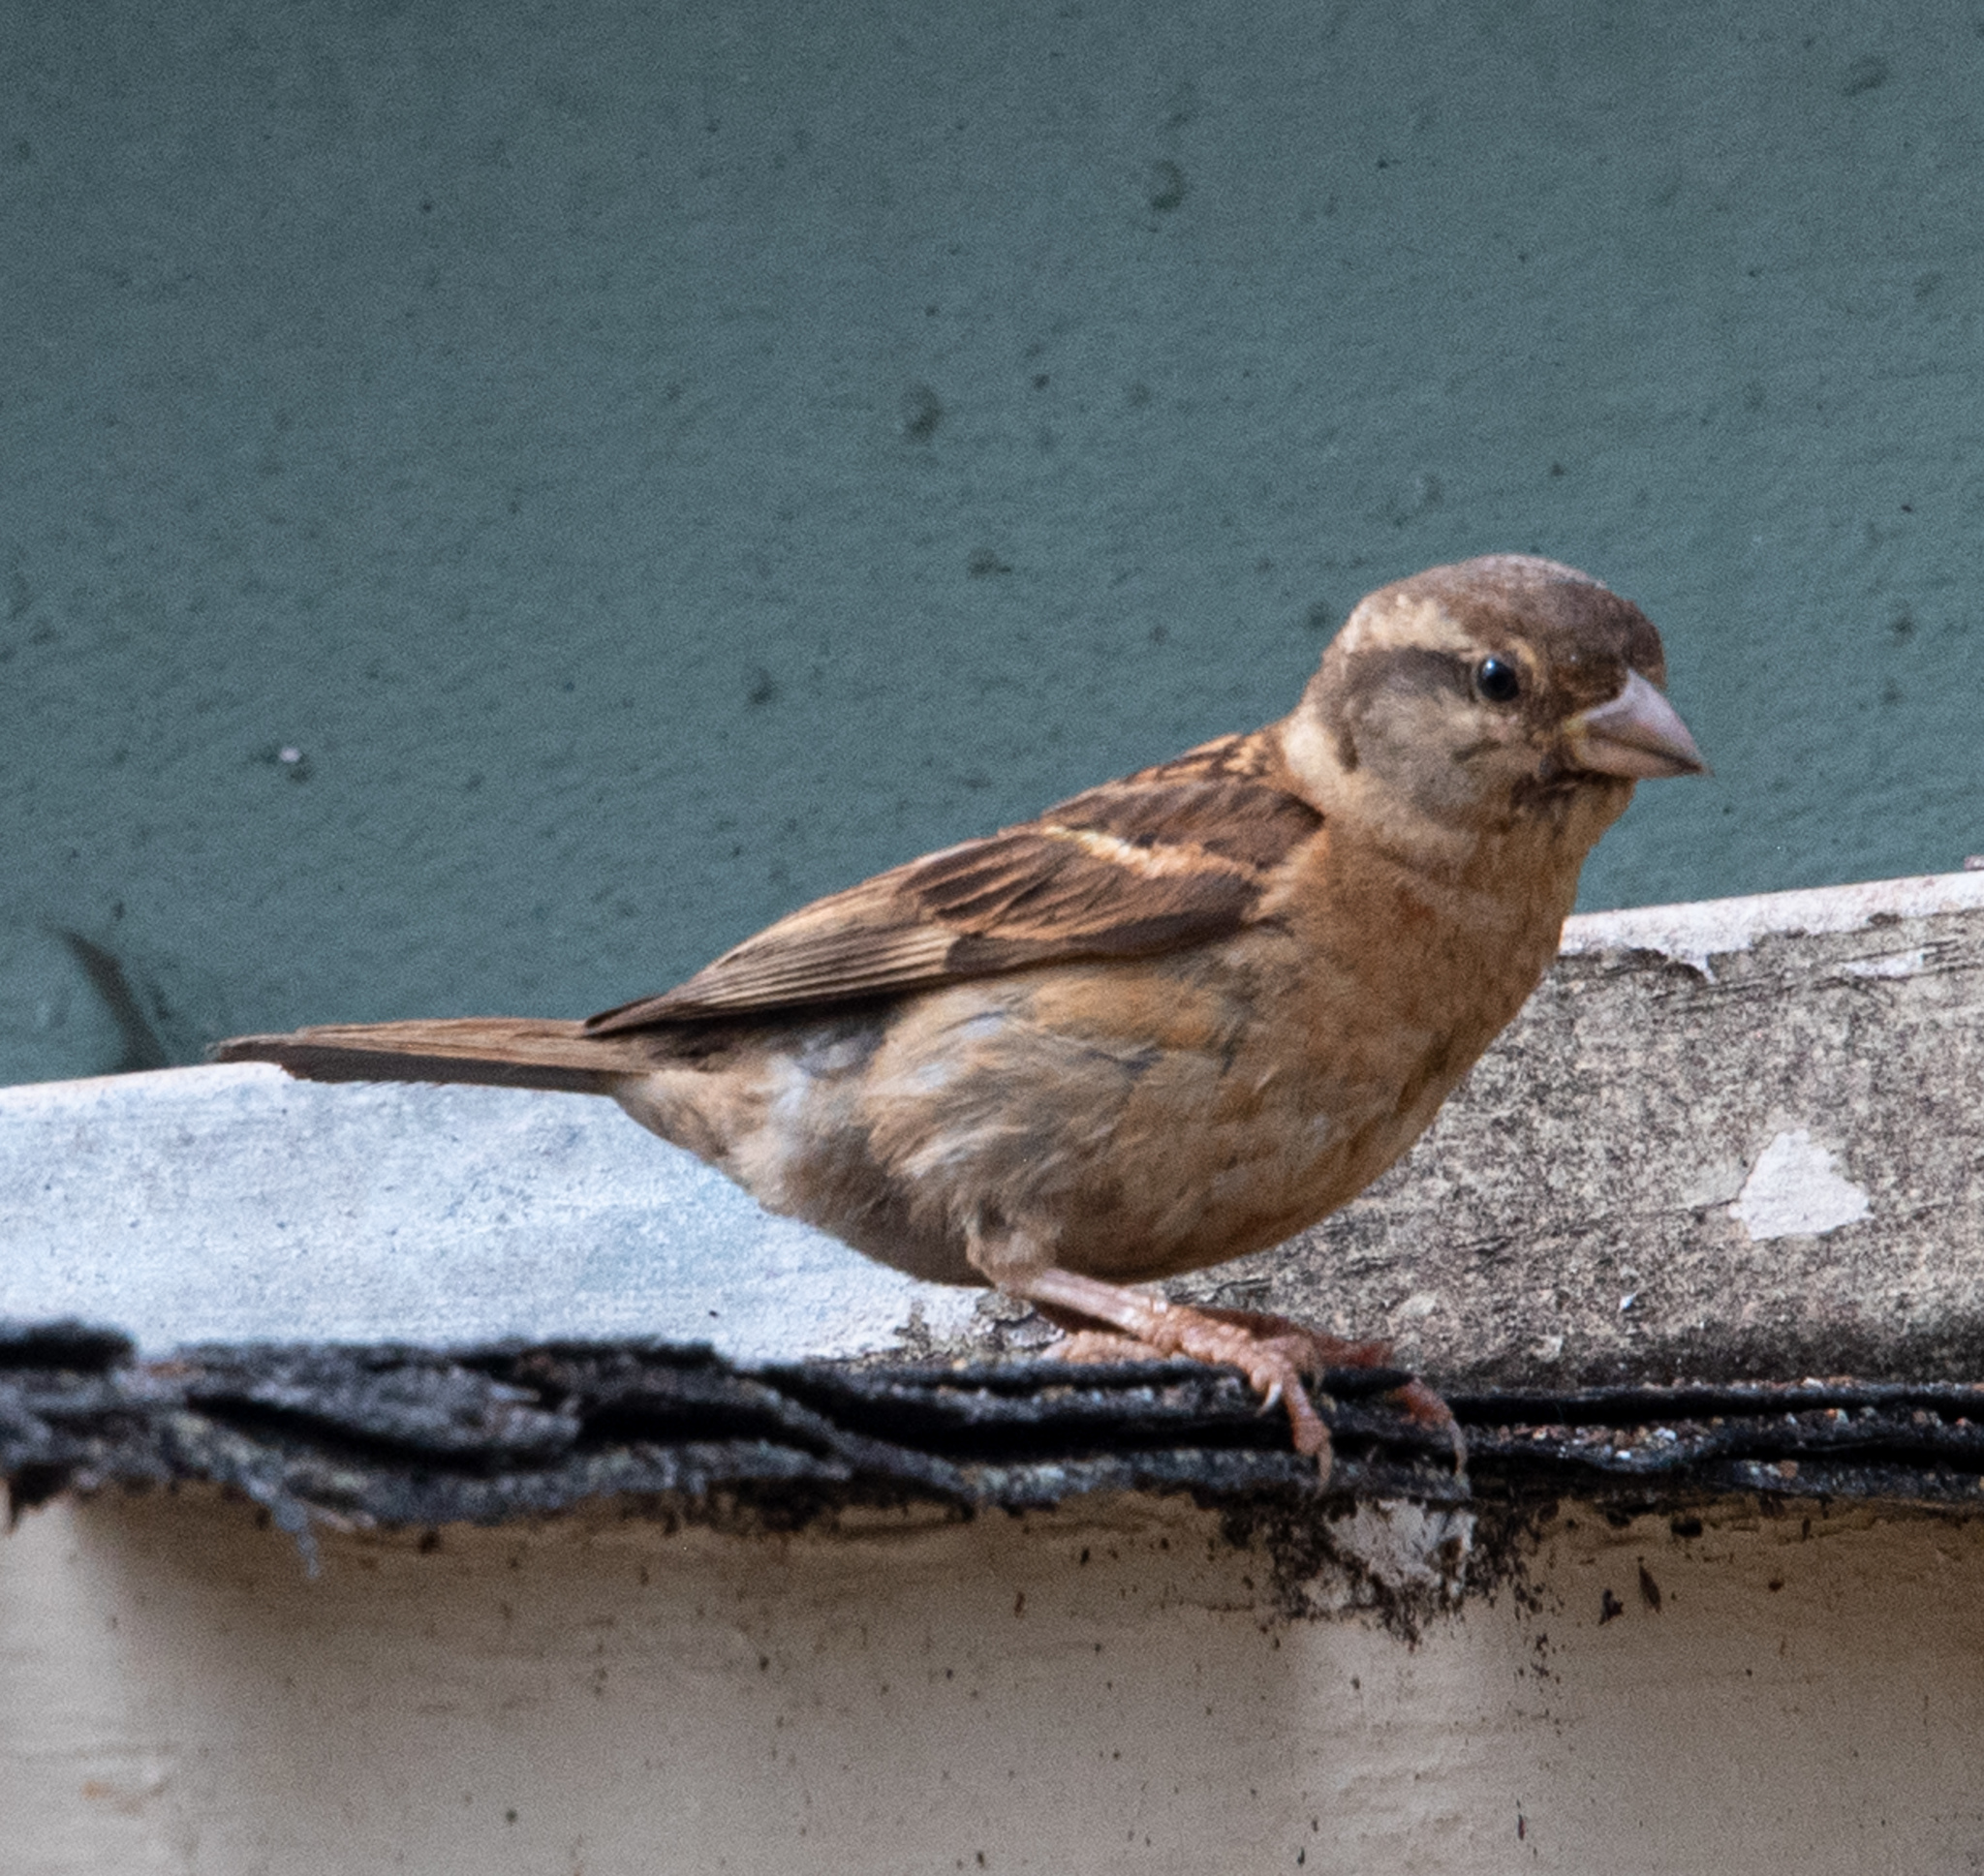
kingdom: Animalia
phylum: Chordata
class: Aves
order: Passeriformes
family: Passeridae
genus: Passer
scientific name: Passer domesticus
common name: House sparrow
